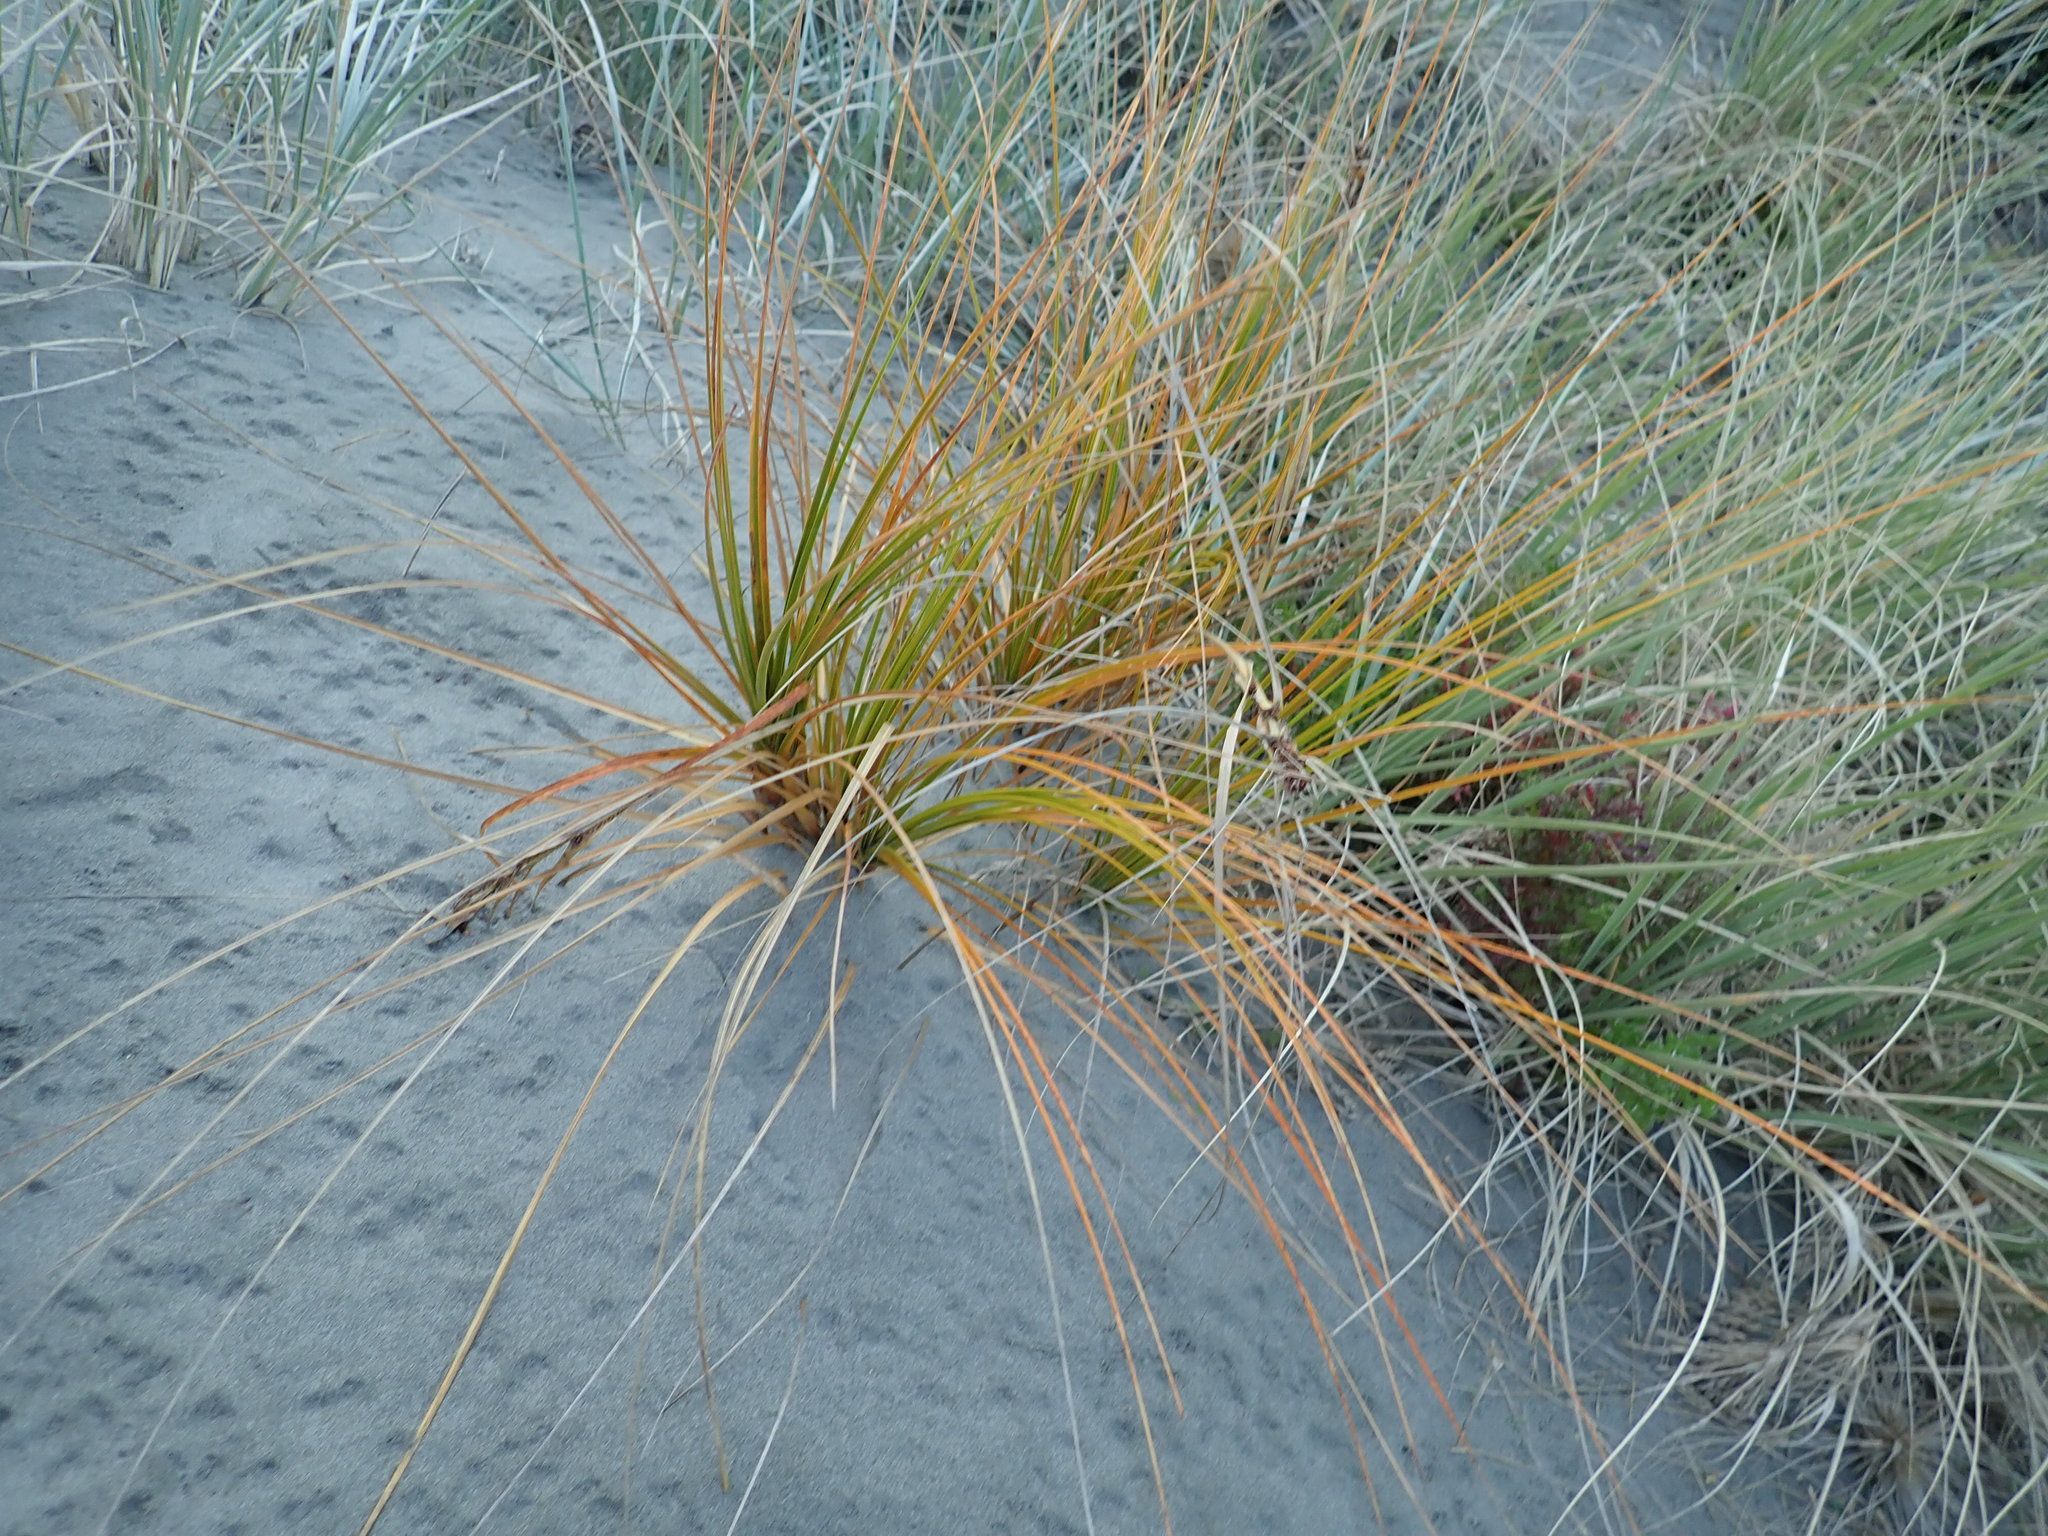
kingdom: Plantae
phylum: Tracheophyta
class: Liliopsida
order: Poales
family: Cyperaceae
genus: Ficinia
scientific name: Ficinia spiralis
